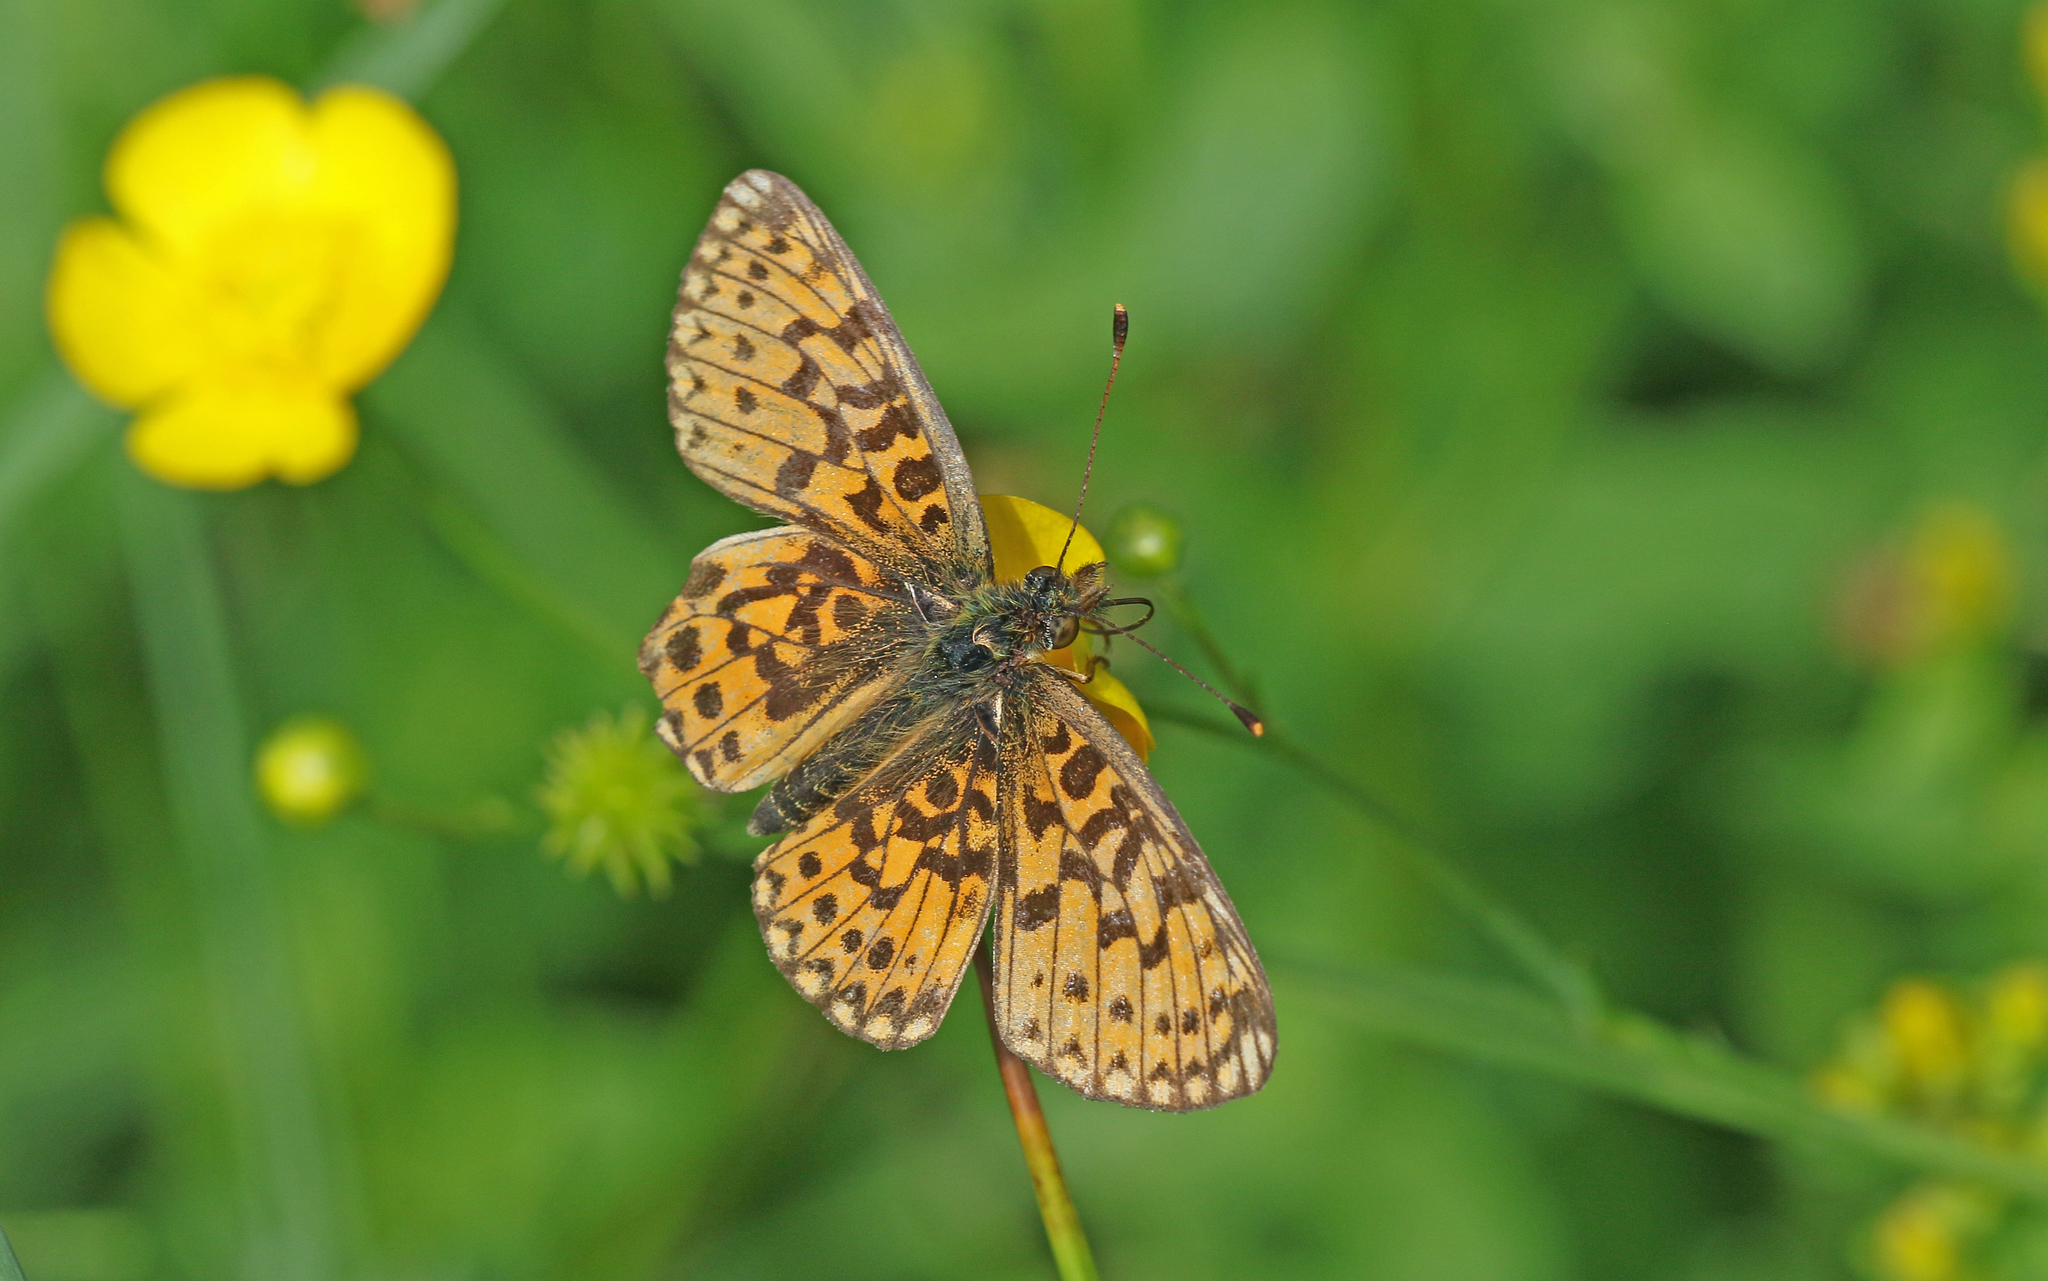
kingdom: Animalia
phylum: Arthropoda
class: Insecta
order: Lepidoptera
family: Nymphalidae
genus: Boloria
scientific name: Boloria selene
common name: Small pearl-bordered fritillary
